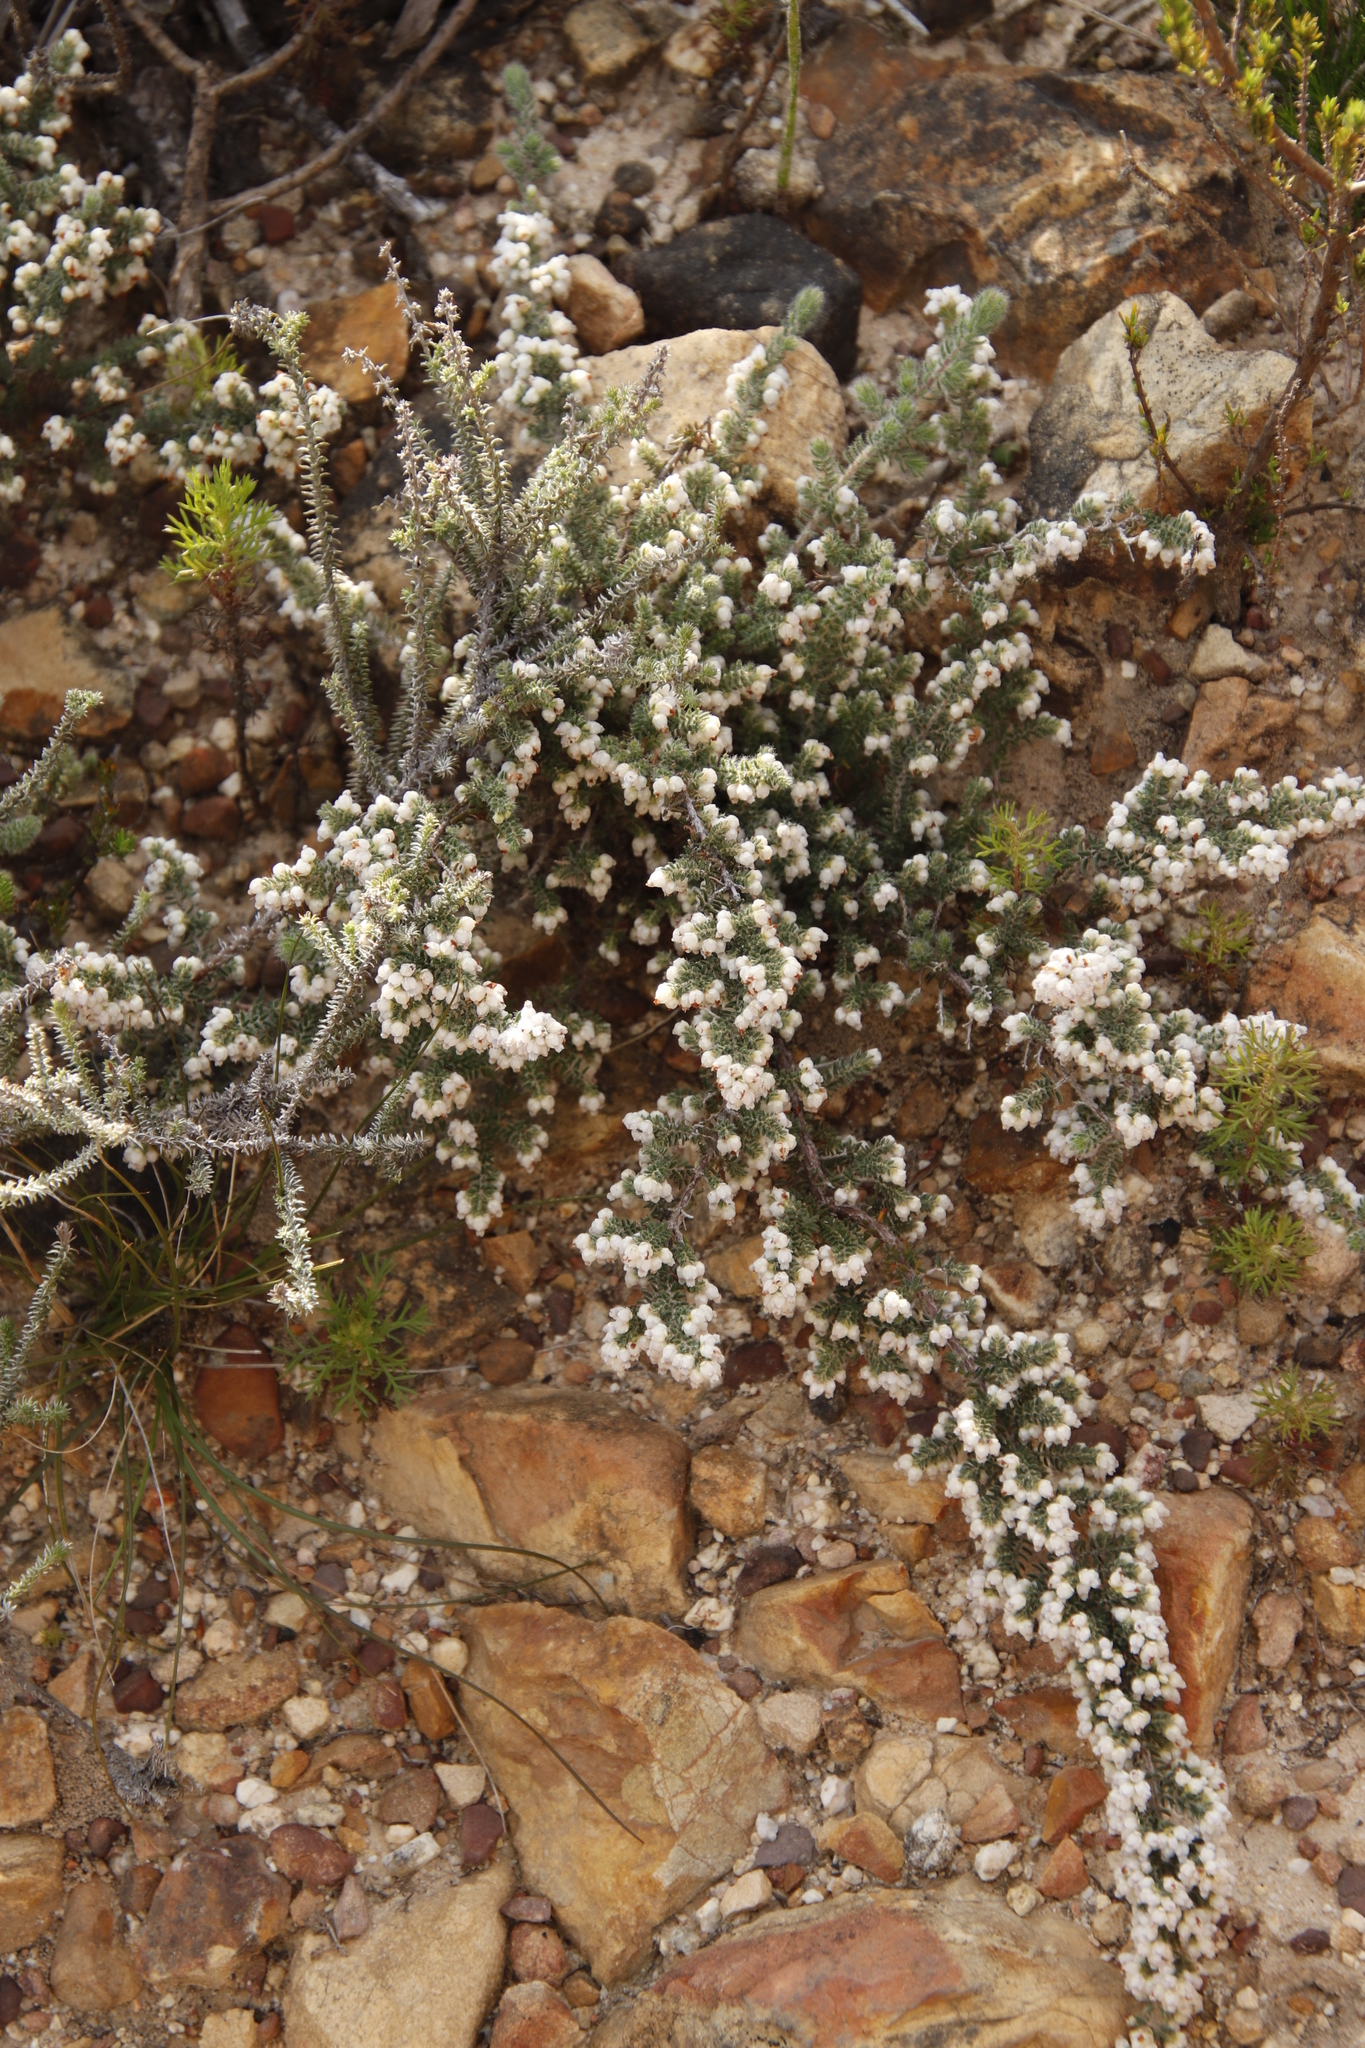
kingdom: Plantae
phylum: Tracheophyta
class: Magnoliopsida
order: Ericales
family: Ericaceae
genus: Erica
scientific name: Erica totta
